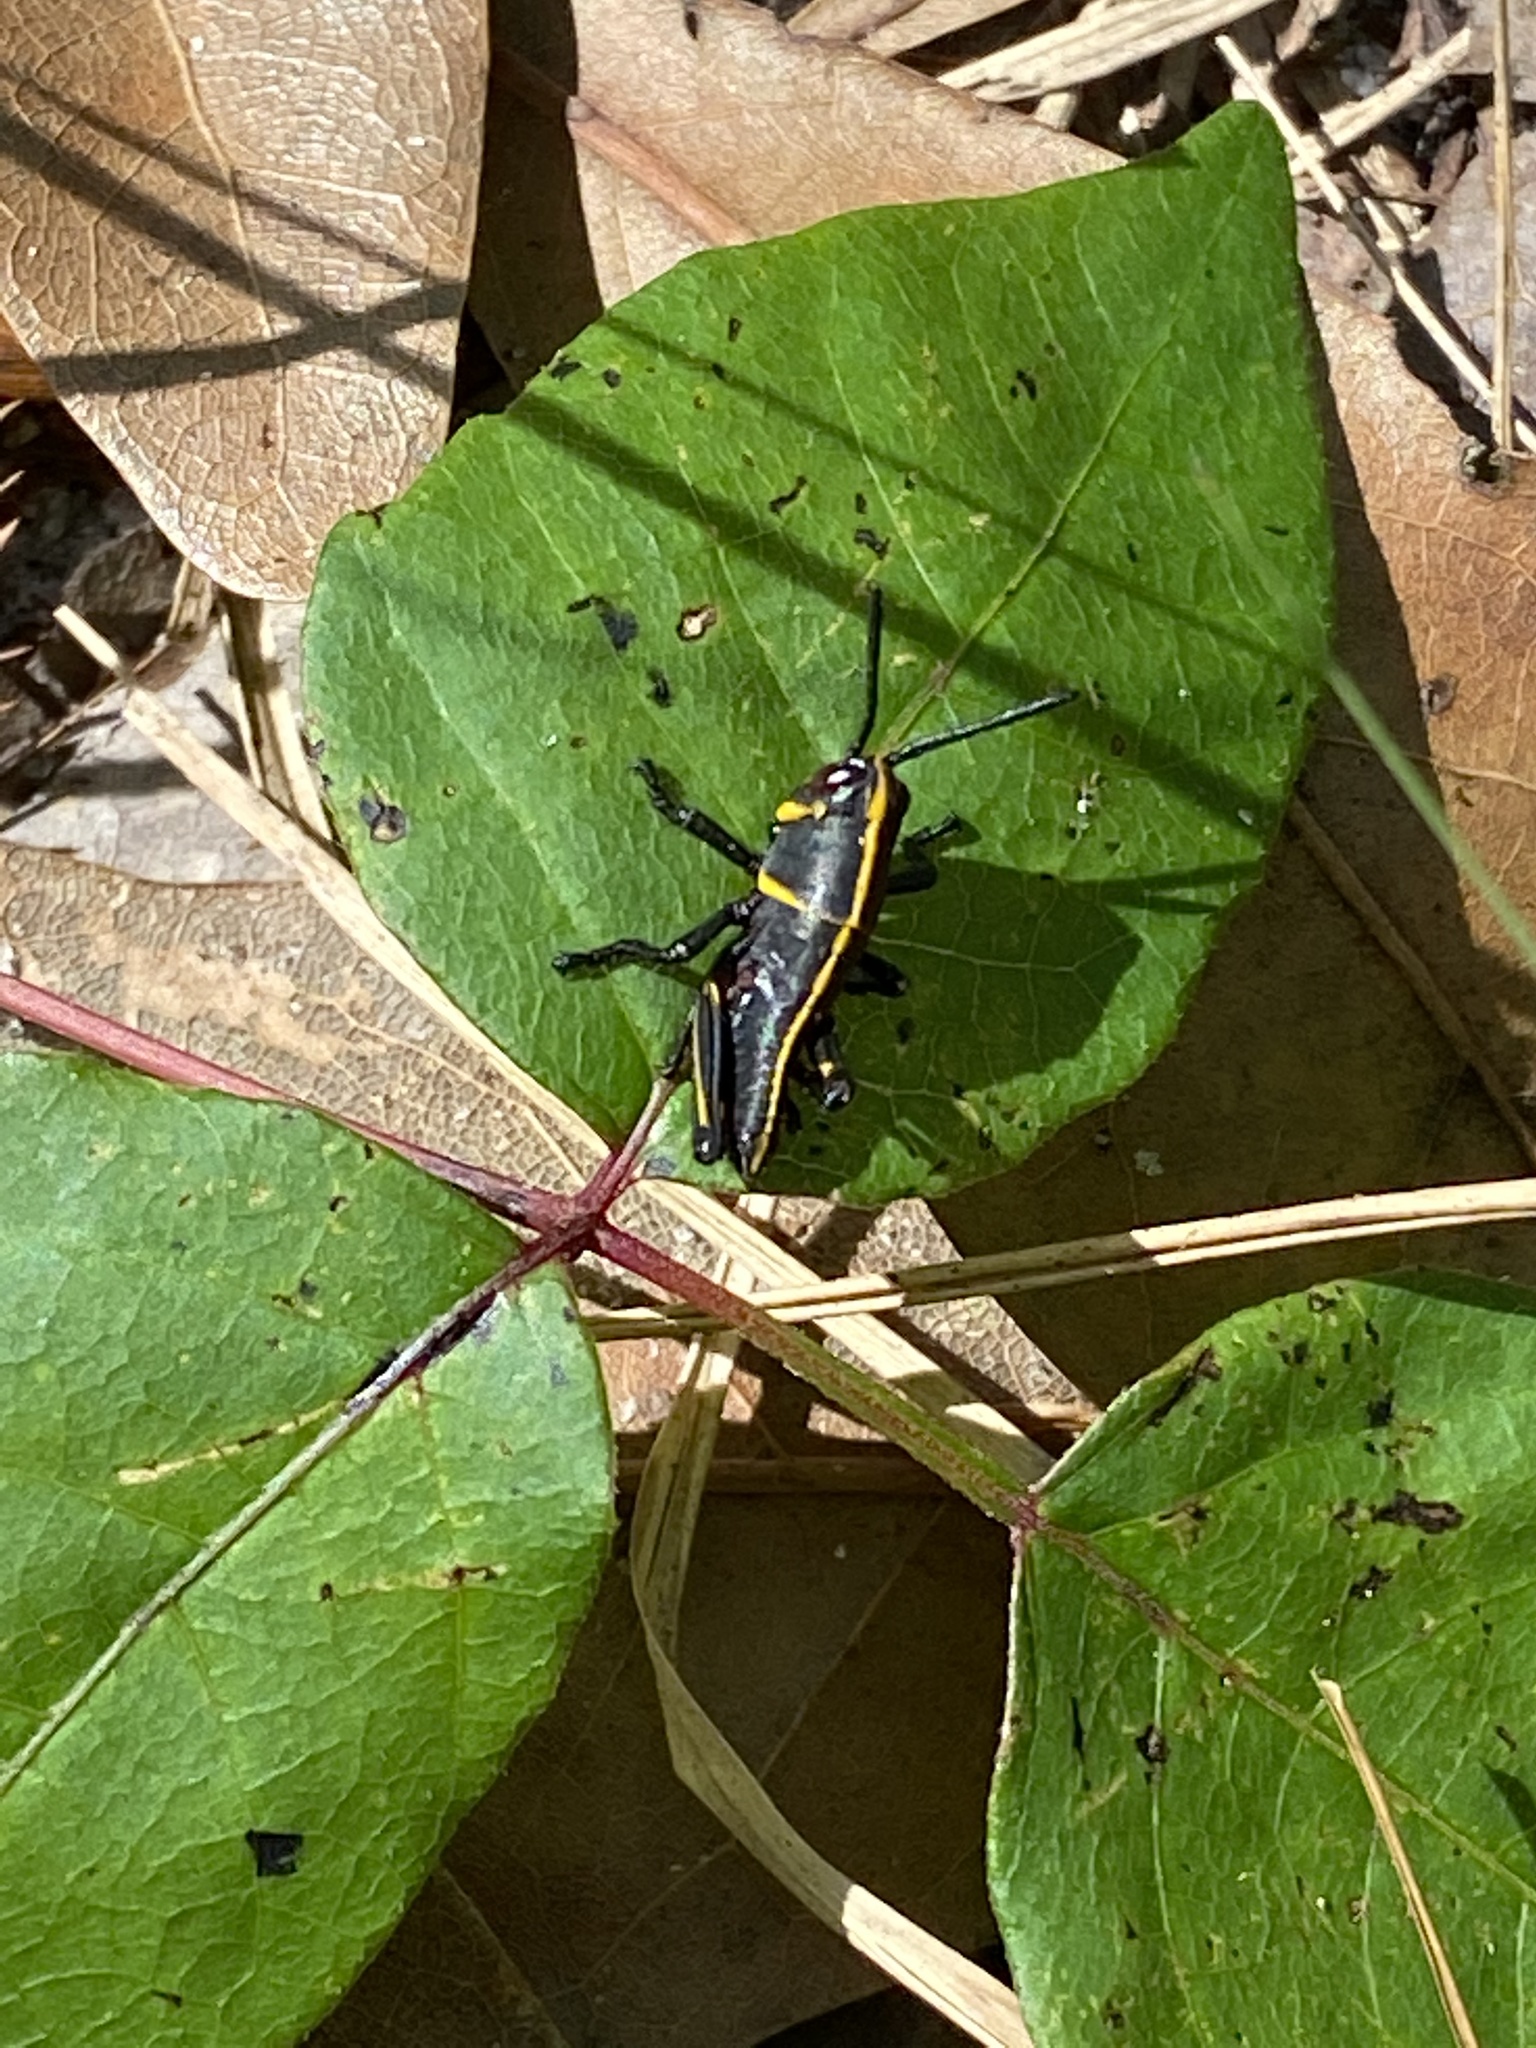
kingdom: Animalia
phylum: Arthropoda
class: Insecta
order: Orthoptera
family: Romaleidae
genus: Romalea
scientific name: Romalea microptera
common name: Eastern lubber grasshopper
